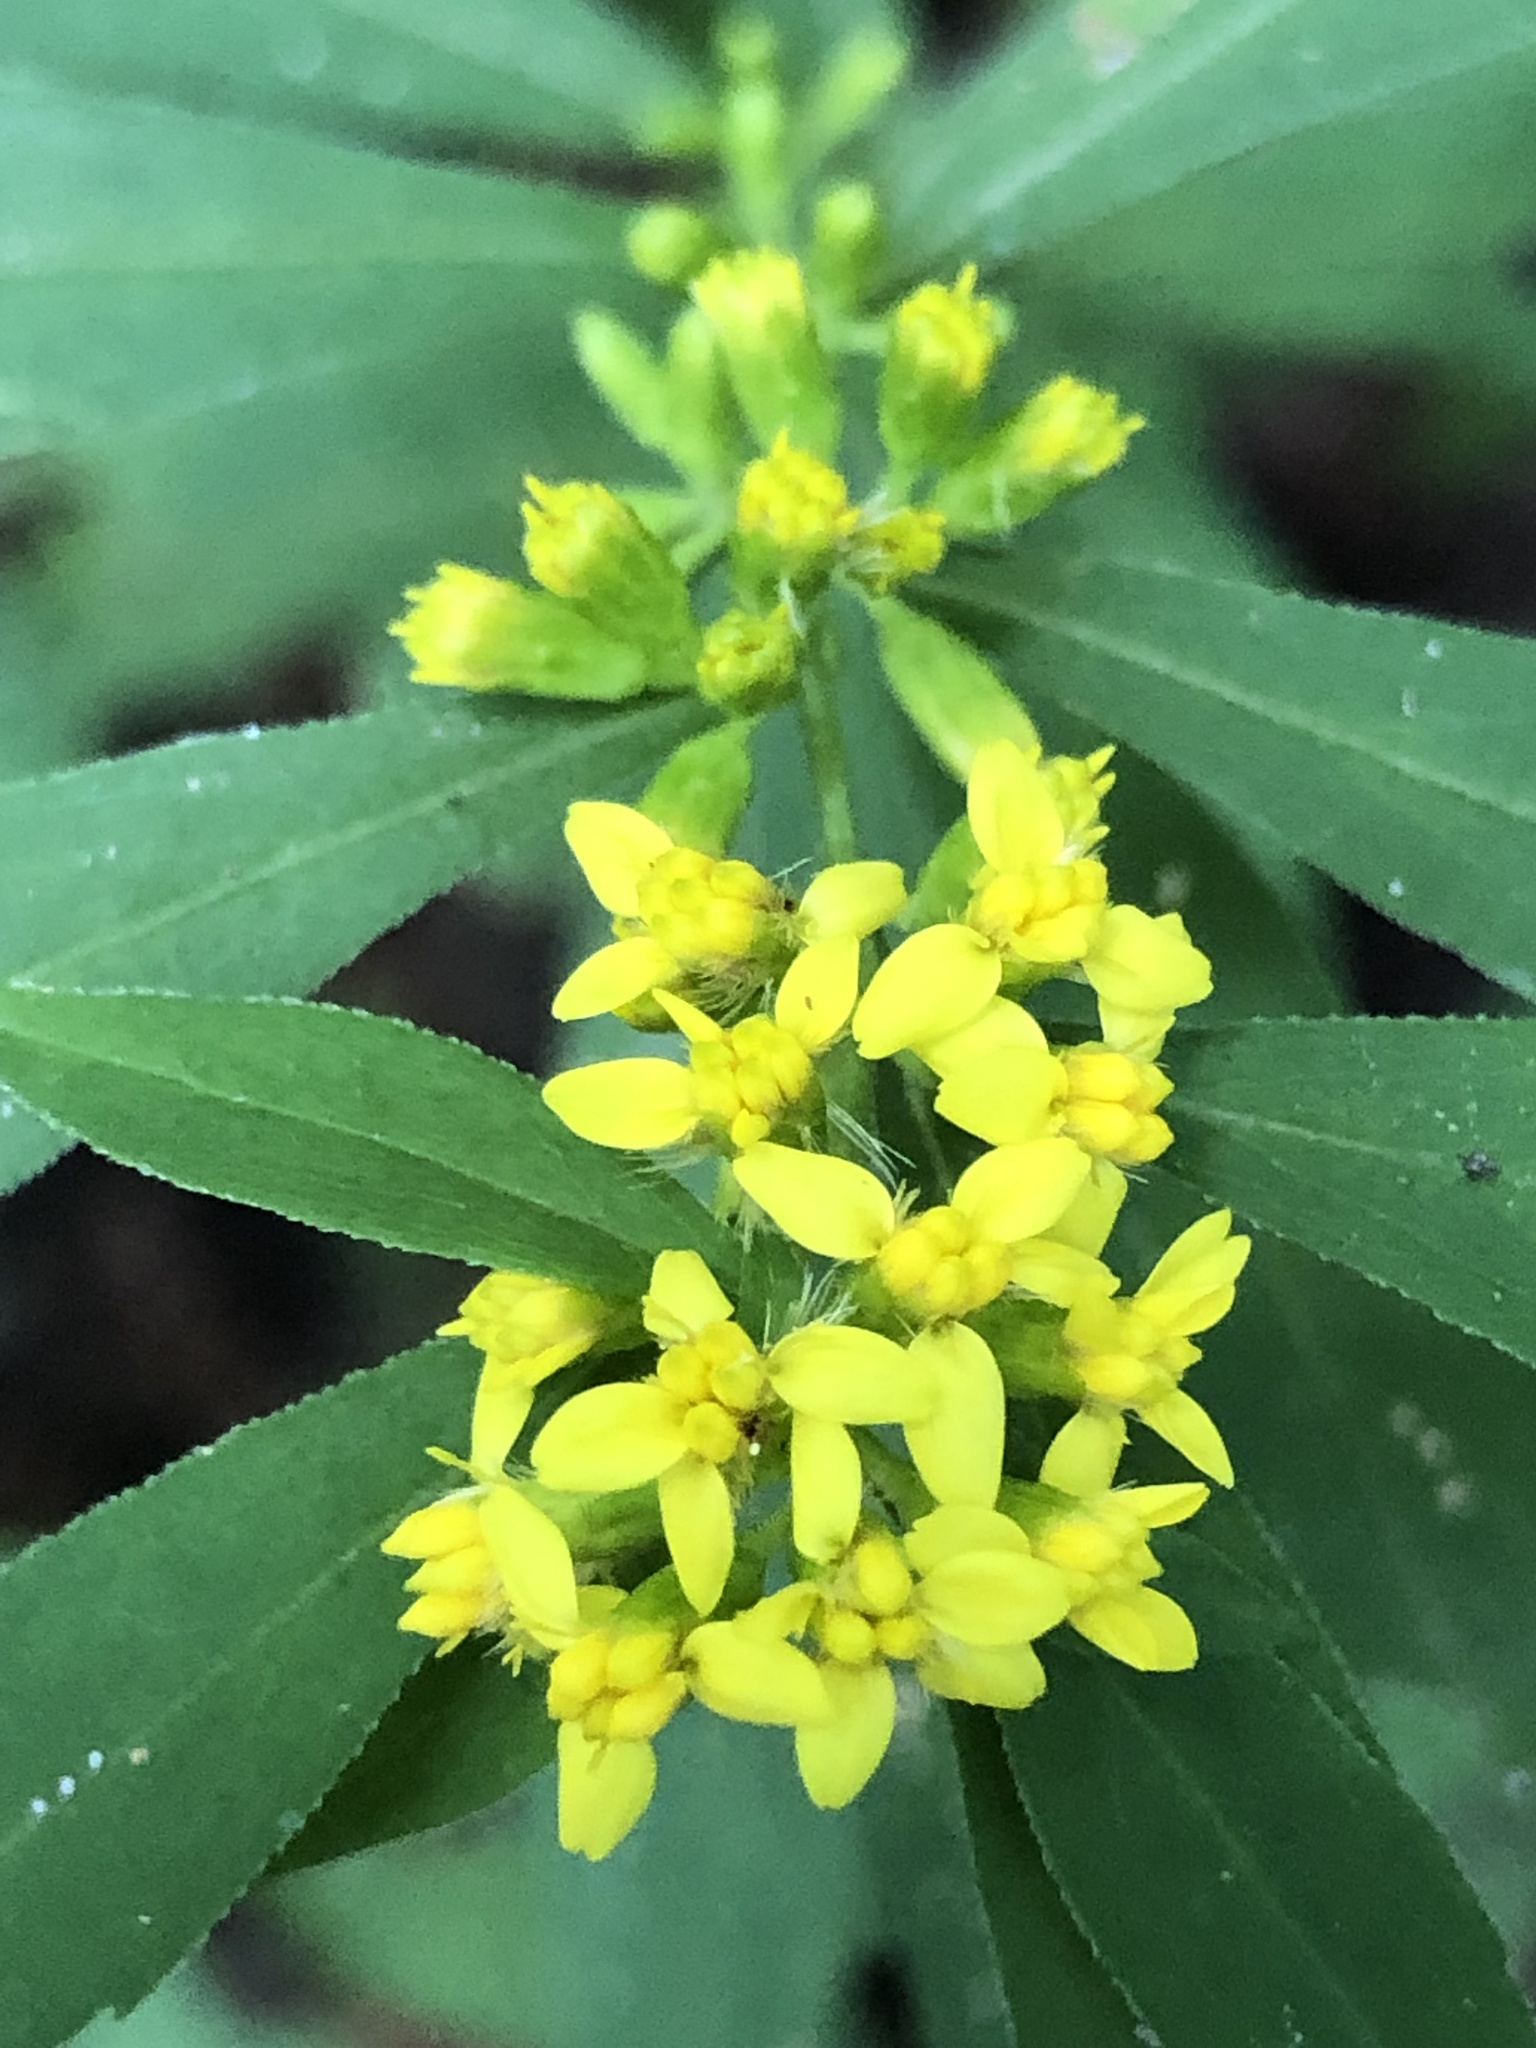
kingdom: Plantae
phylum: Tracheophyta
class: Magnoliopsida
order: Asterales
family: Asteraceae
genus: Solidago
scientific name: Solidago caesia
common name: Woodland goldenrod
